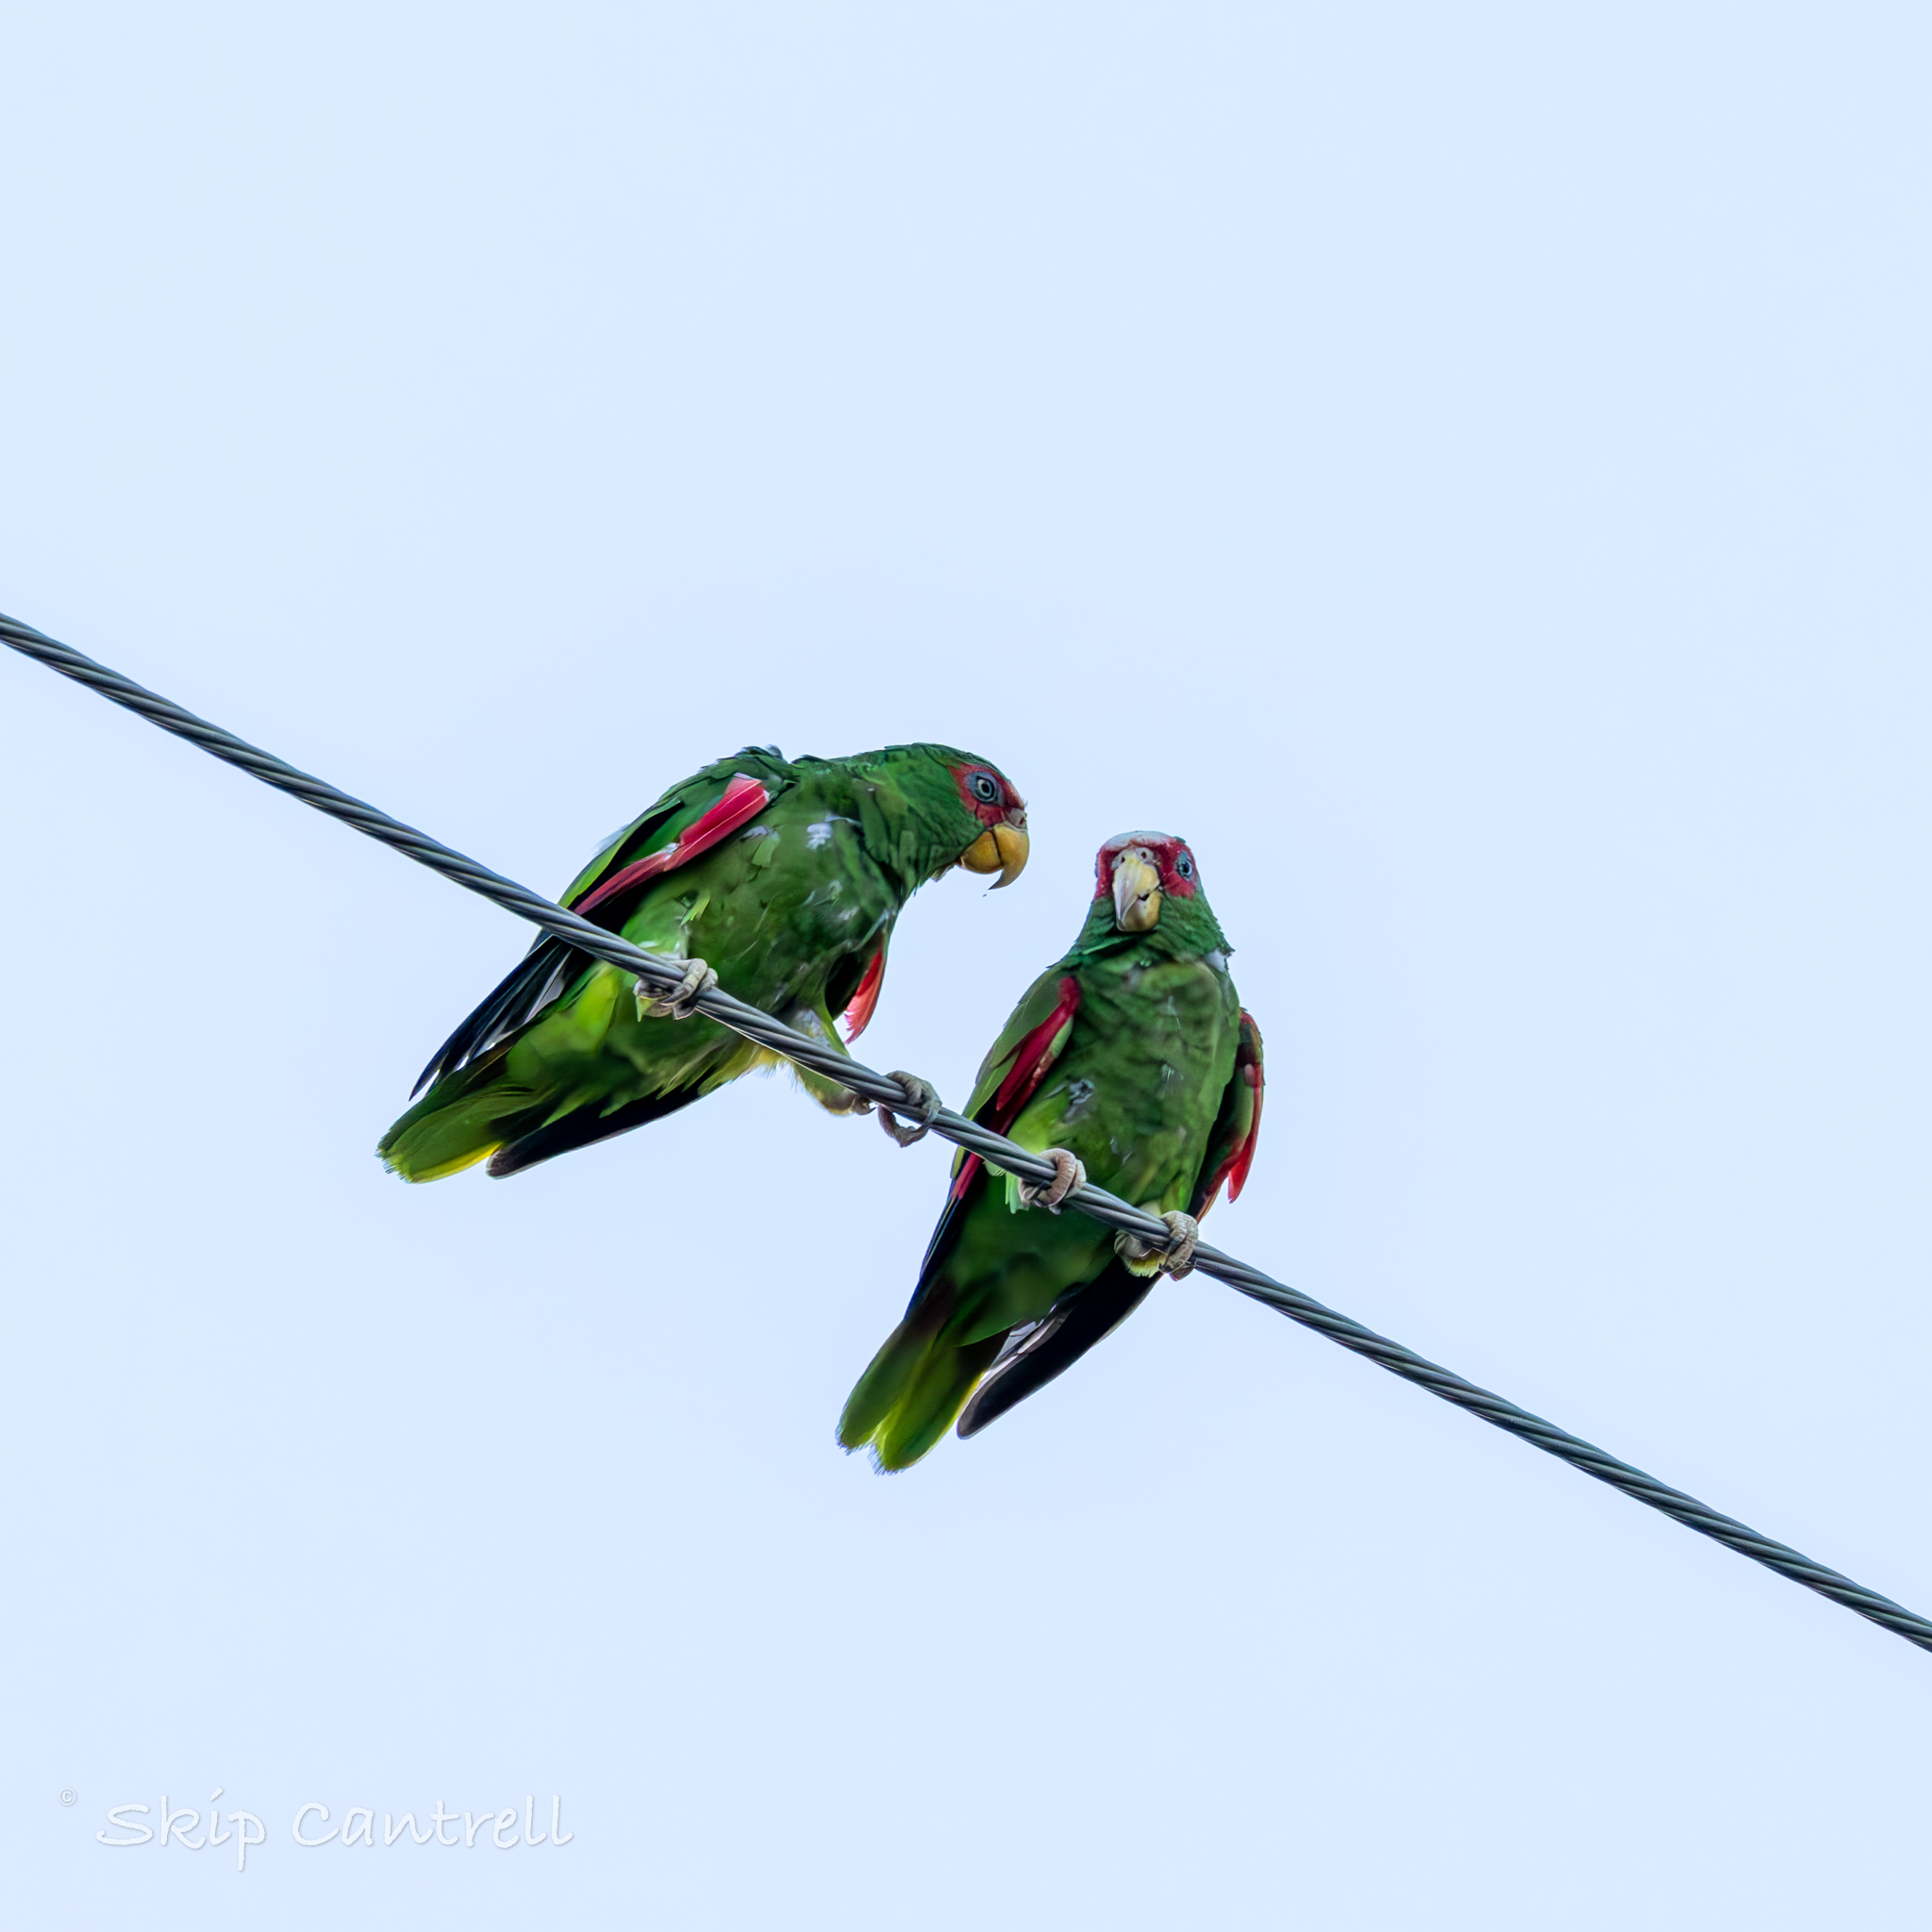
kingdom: Animalia
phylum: Chordata
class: Aves
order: Psittaciformes
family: Psittacidae
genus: Amazona
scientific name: Amazona albifrons
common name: White-fronted amazon
